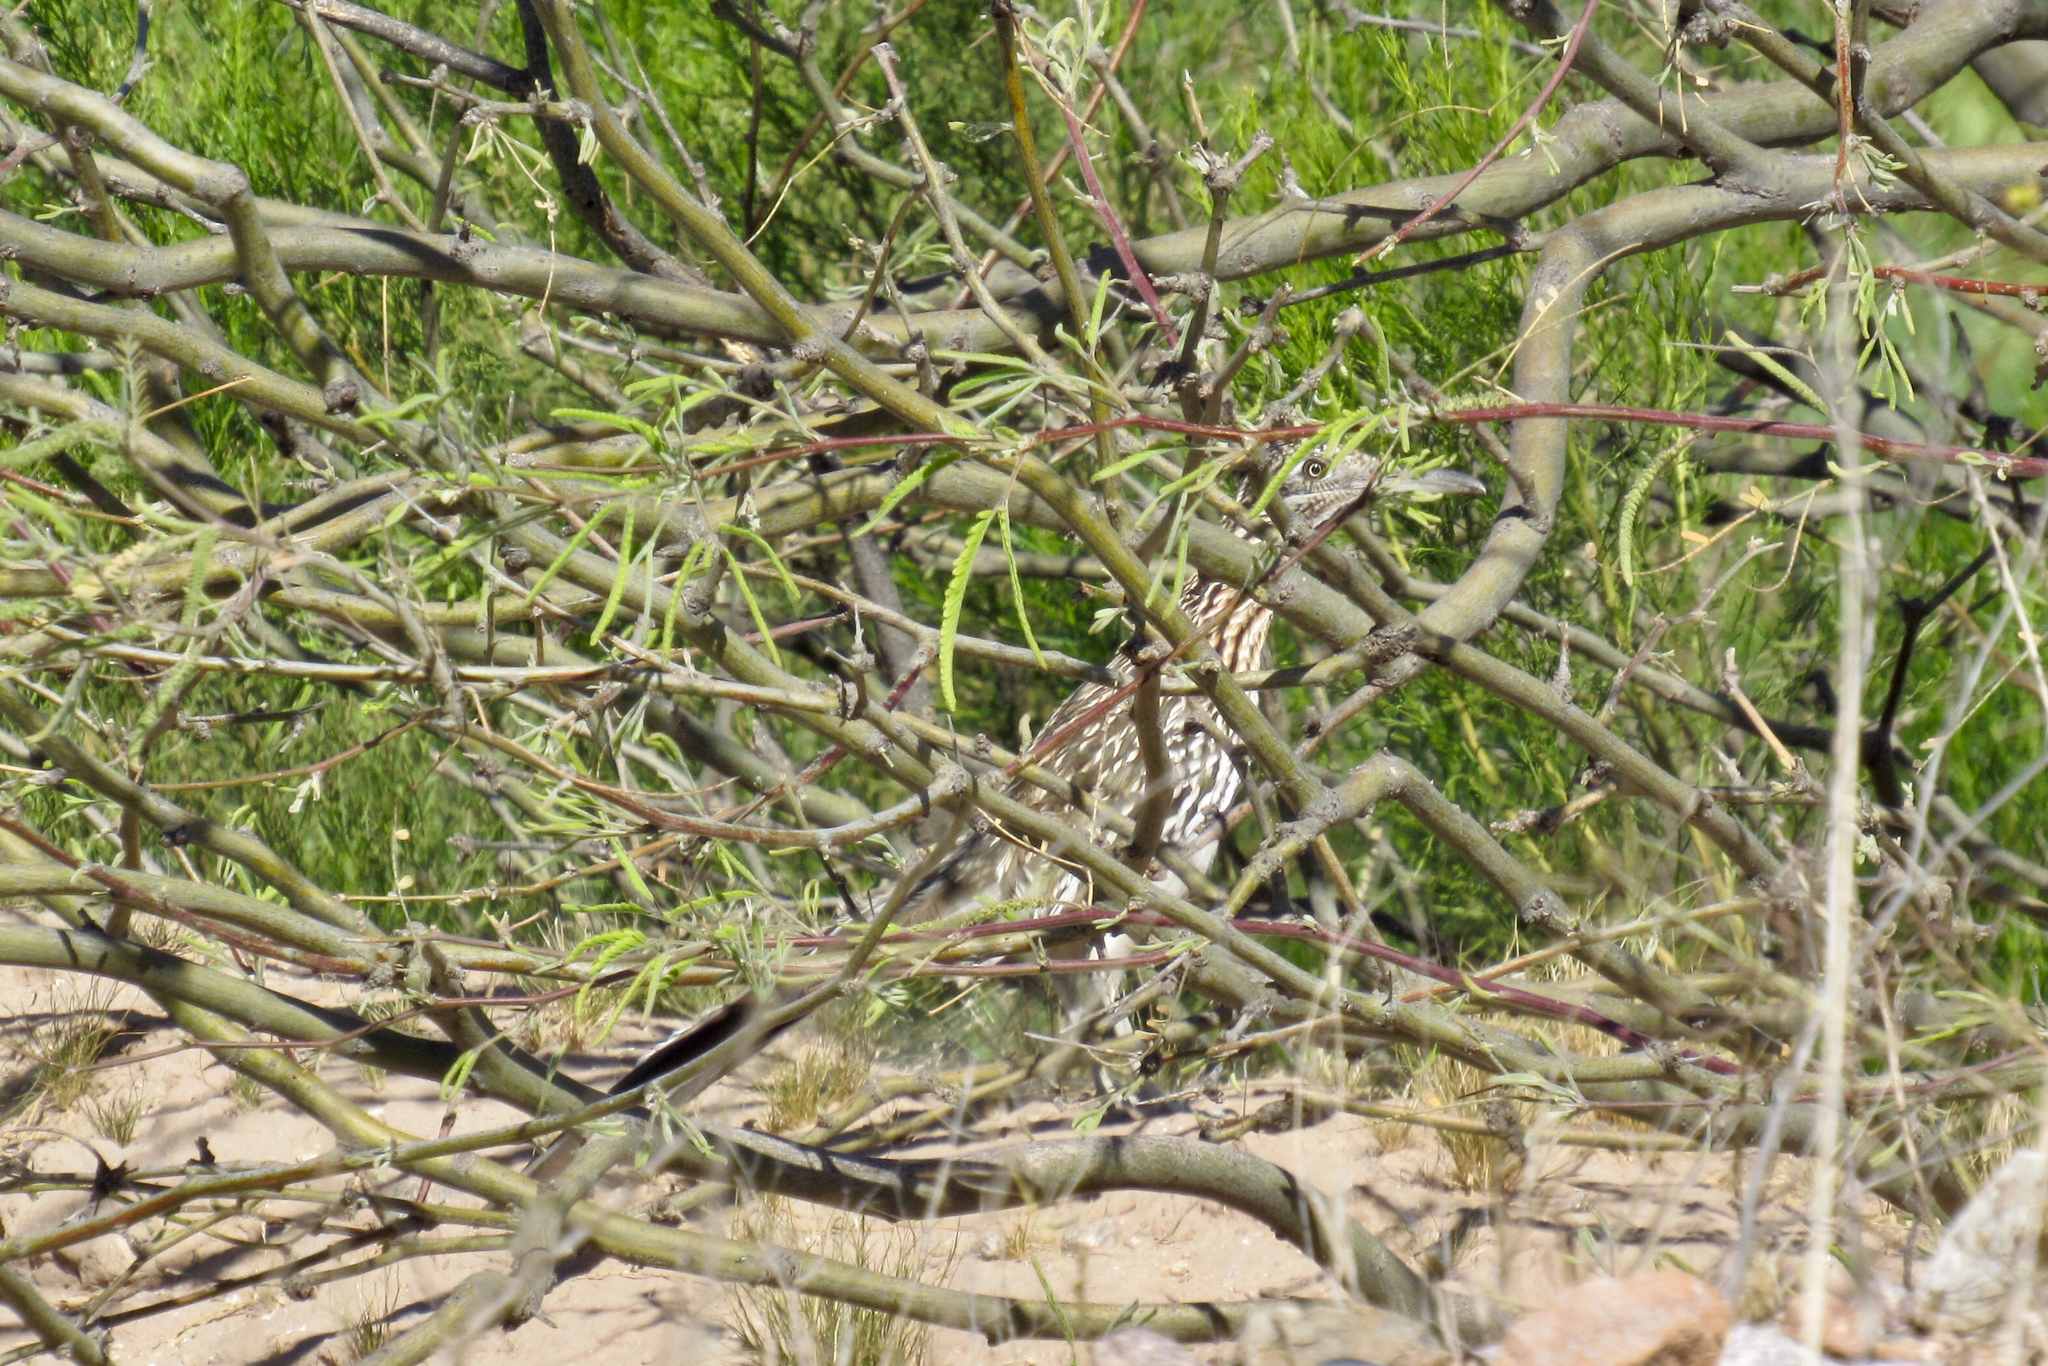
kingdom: Animalia
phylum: Chordata
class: Aves
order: Cuculiformes
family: Cuculidae
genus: Geococcyx
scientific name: Geococcyx californianus
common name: Greater roadrunner
